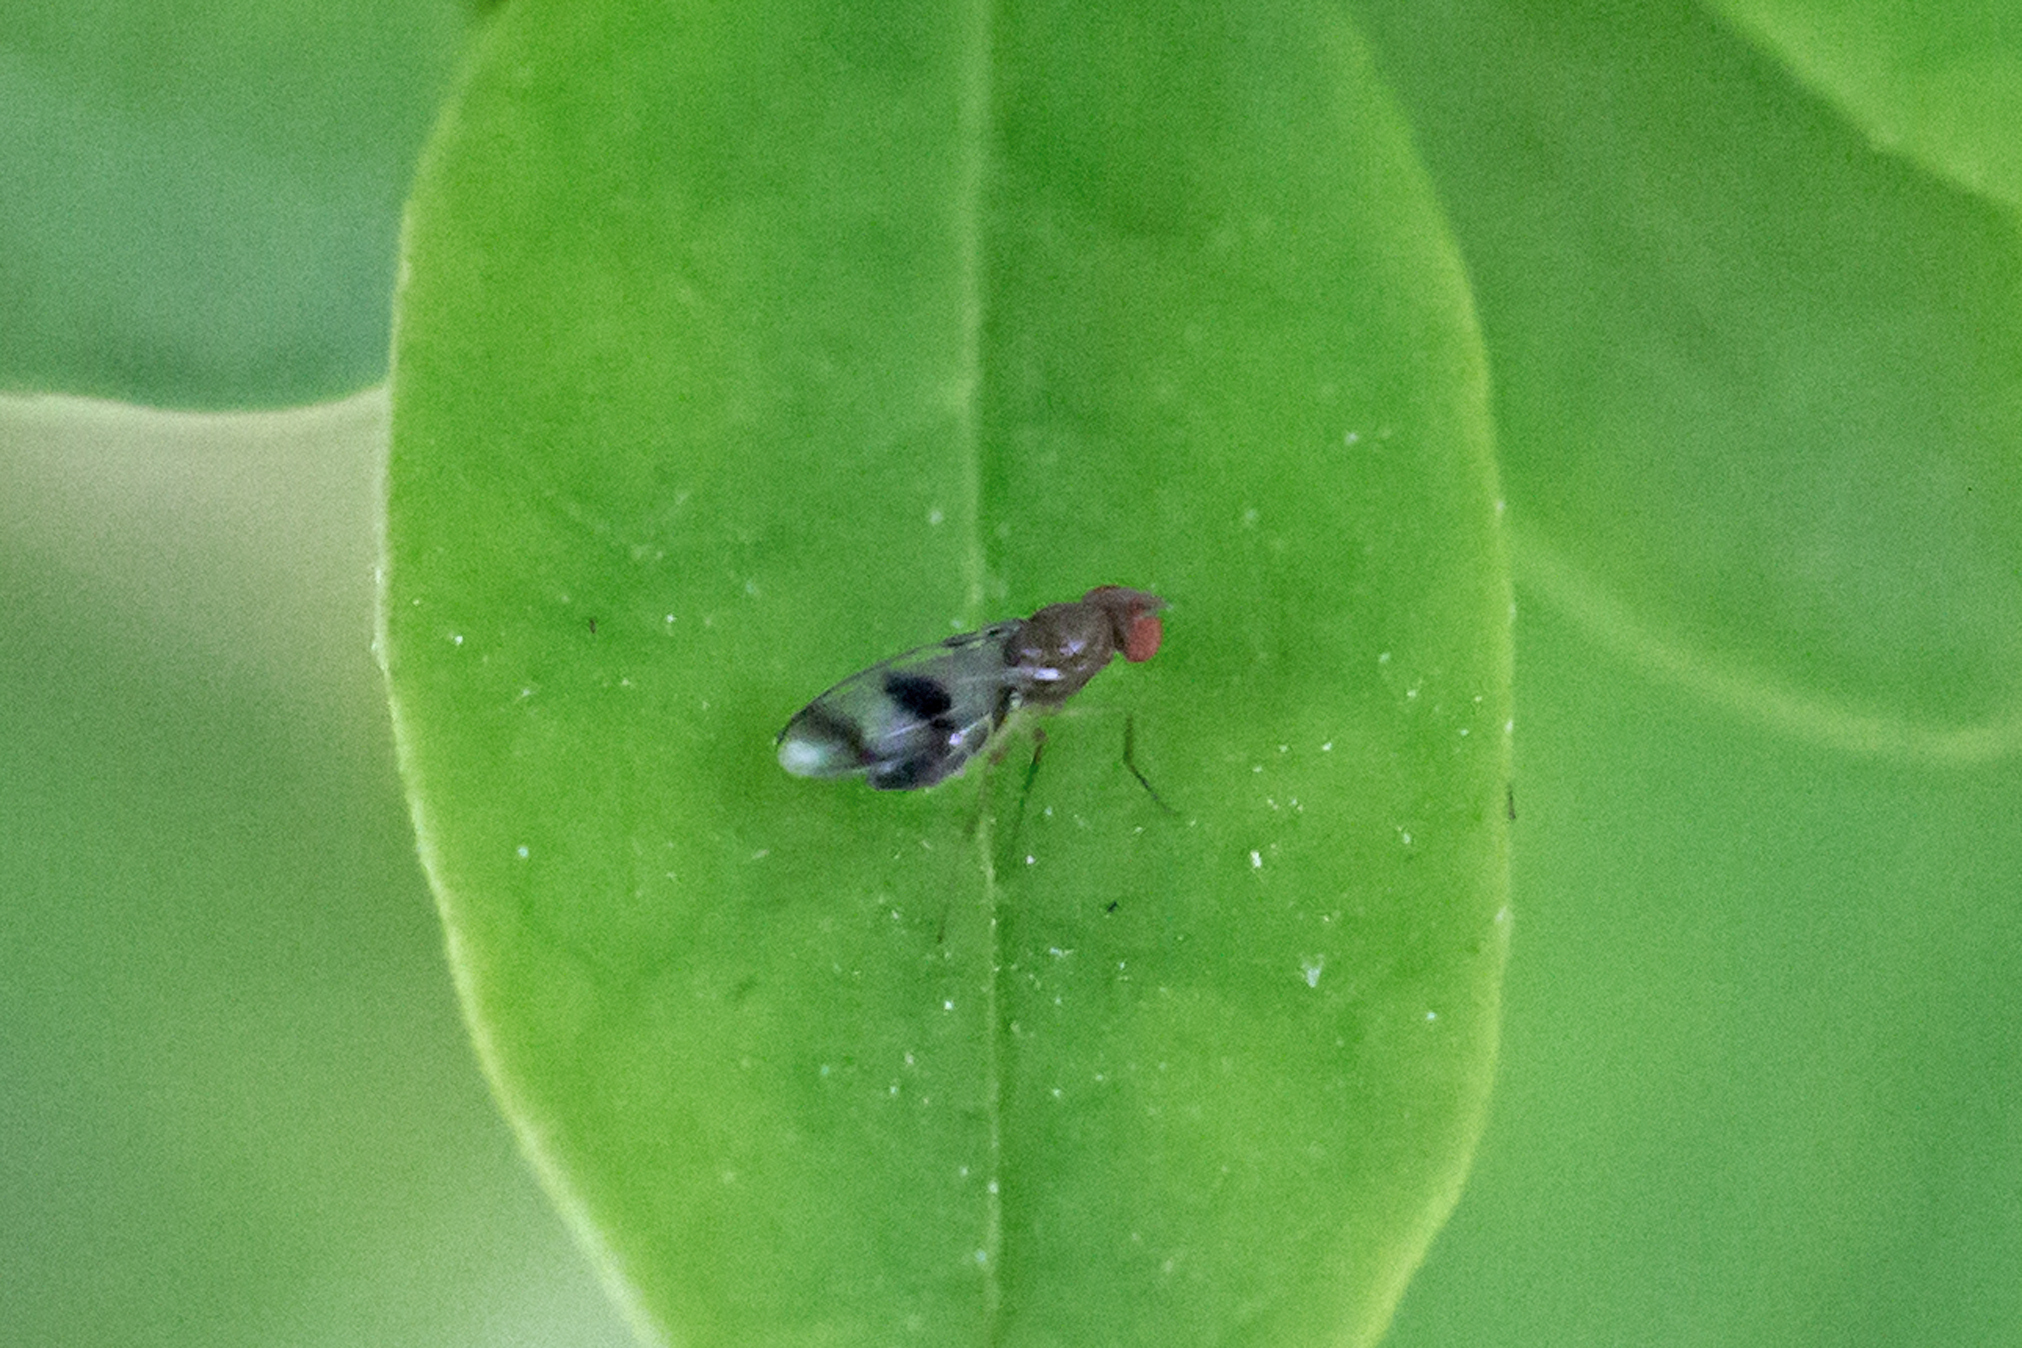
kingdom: Animalia
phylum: Arthropoda
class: Insecta
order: Diptera
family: Drosophilidae
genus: Chymomyza
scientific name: Chymomyza amoena
